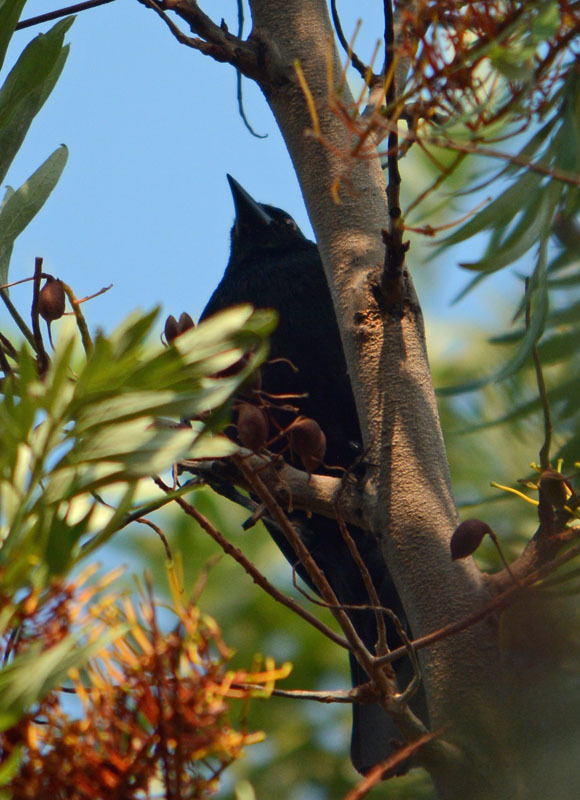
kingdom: Animalia
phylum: Chordata
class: Aves
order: Passeriformes
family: Icteridae
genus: Molothrus
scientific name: Molothrus aeneus
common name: Bronzed cowbird
